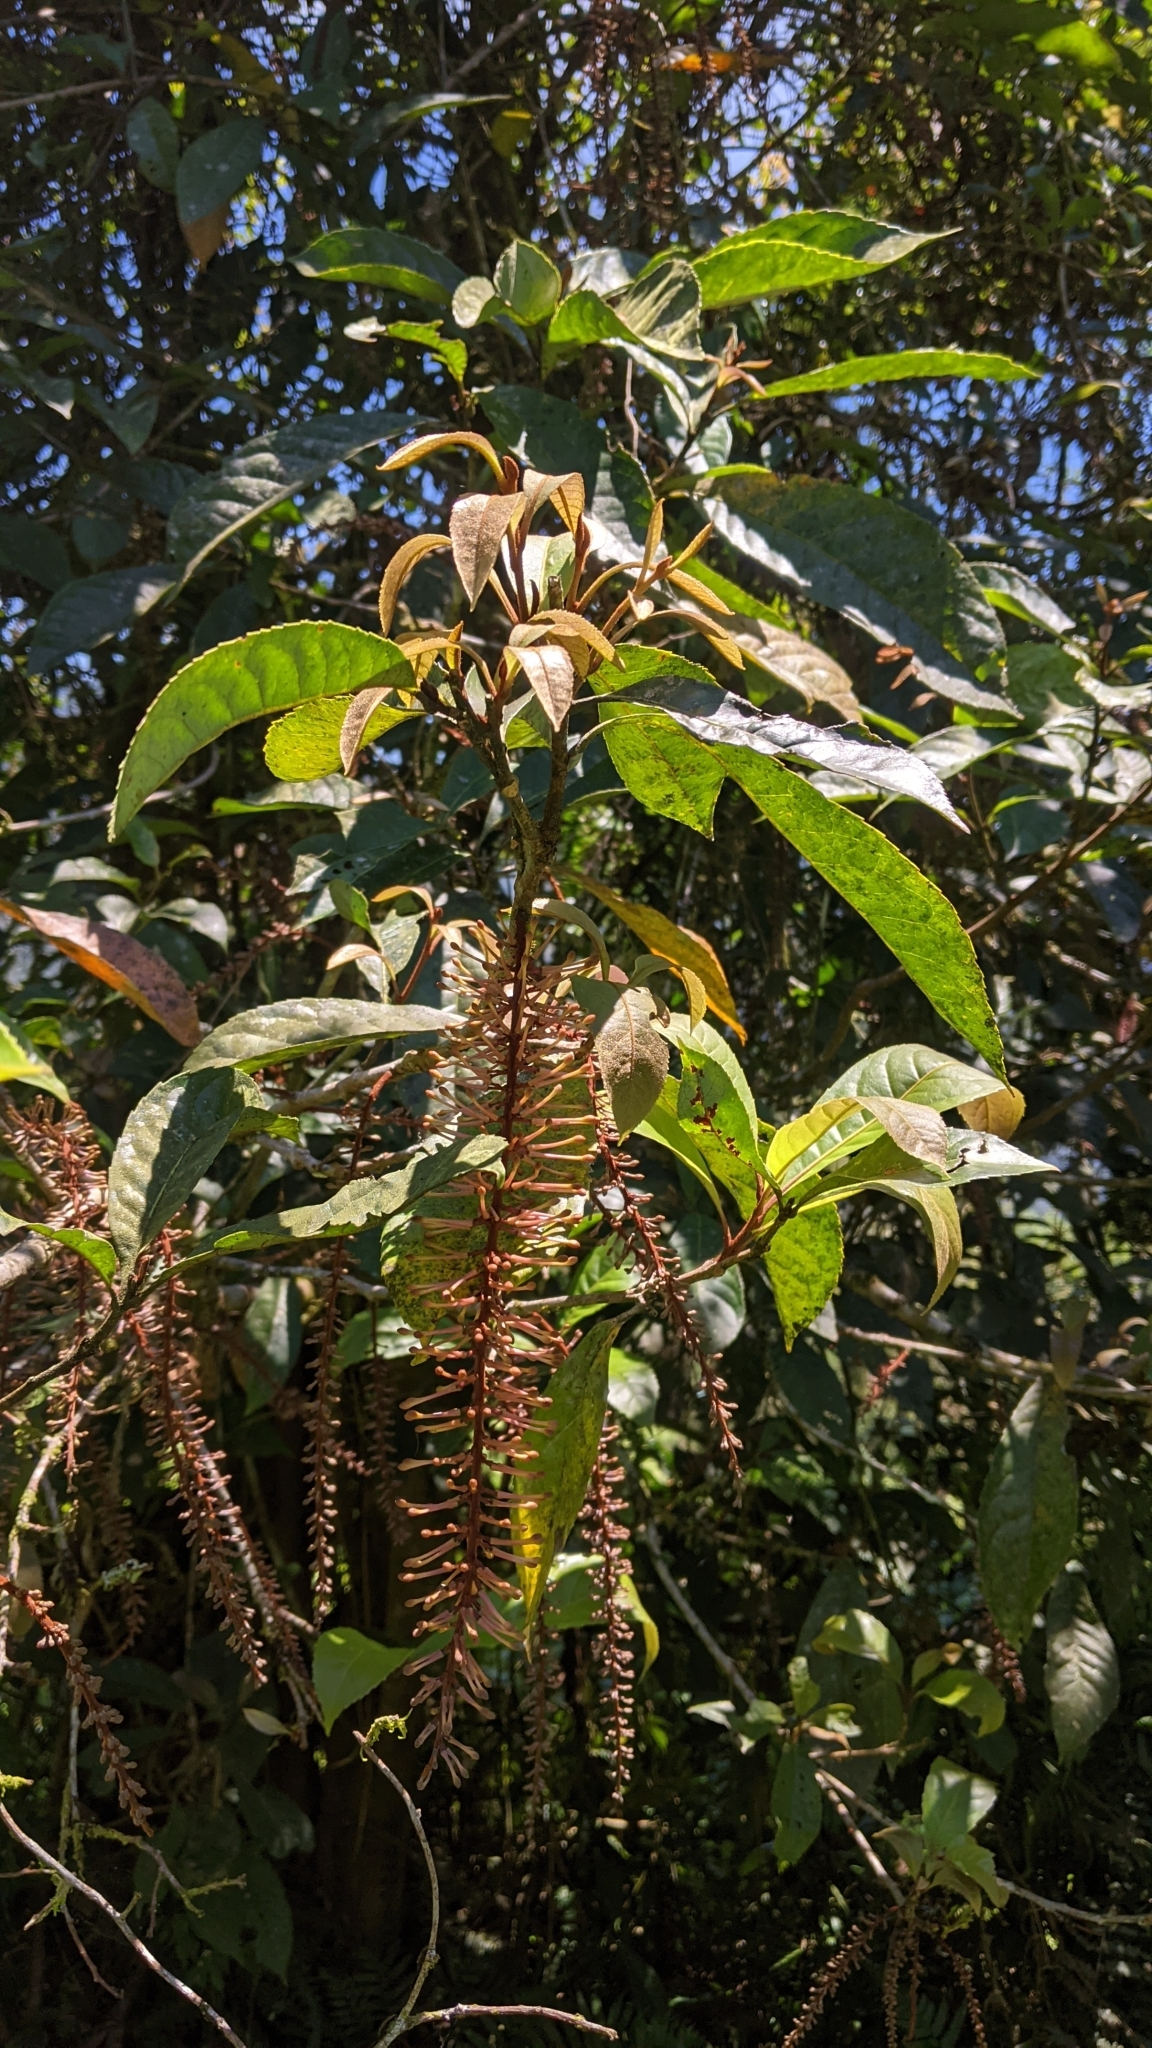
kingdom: Plantae
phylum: Tracheophyta
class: Magnoliopsida
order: Proteales
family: Proteaceae
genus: Helicia
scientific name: Helicia formosana
